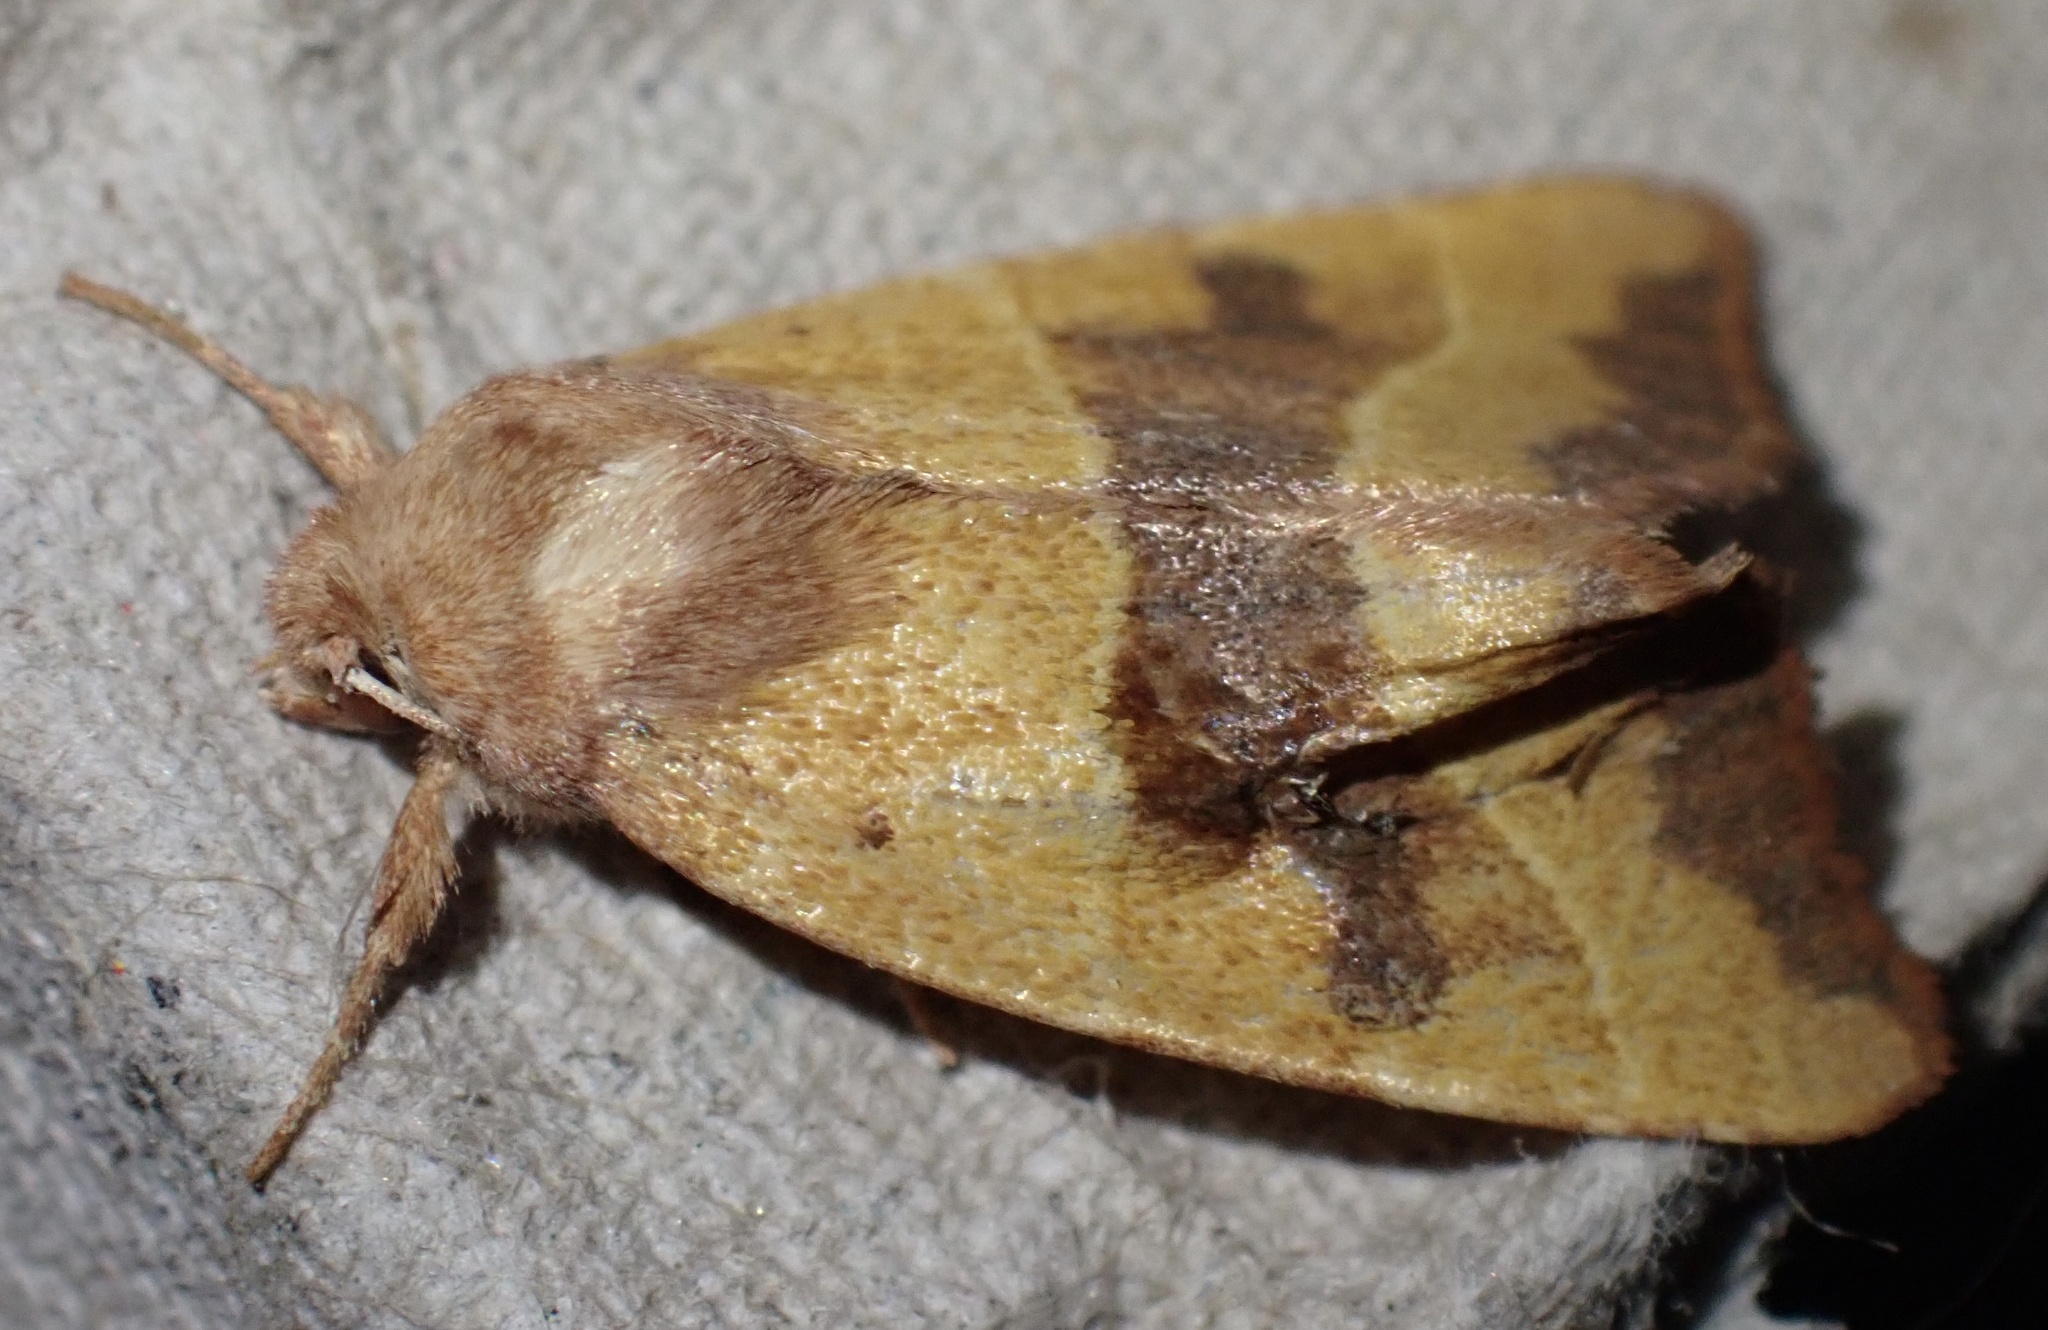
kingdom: Animalia
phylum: Arthropoda
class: Insecta
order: Lepidoptera
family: Noctuidae
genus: Atethmia
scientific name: Atethmia centrago
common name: Centre-barred sallow
